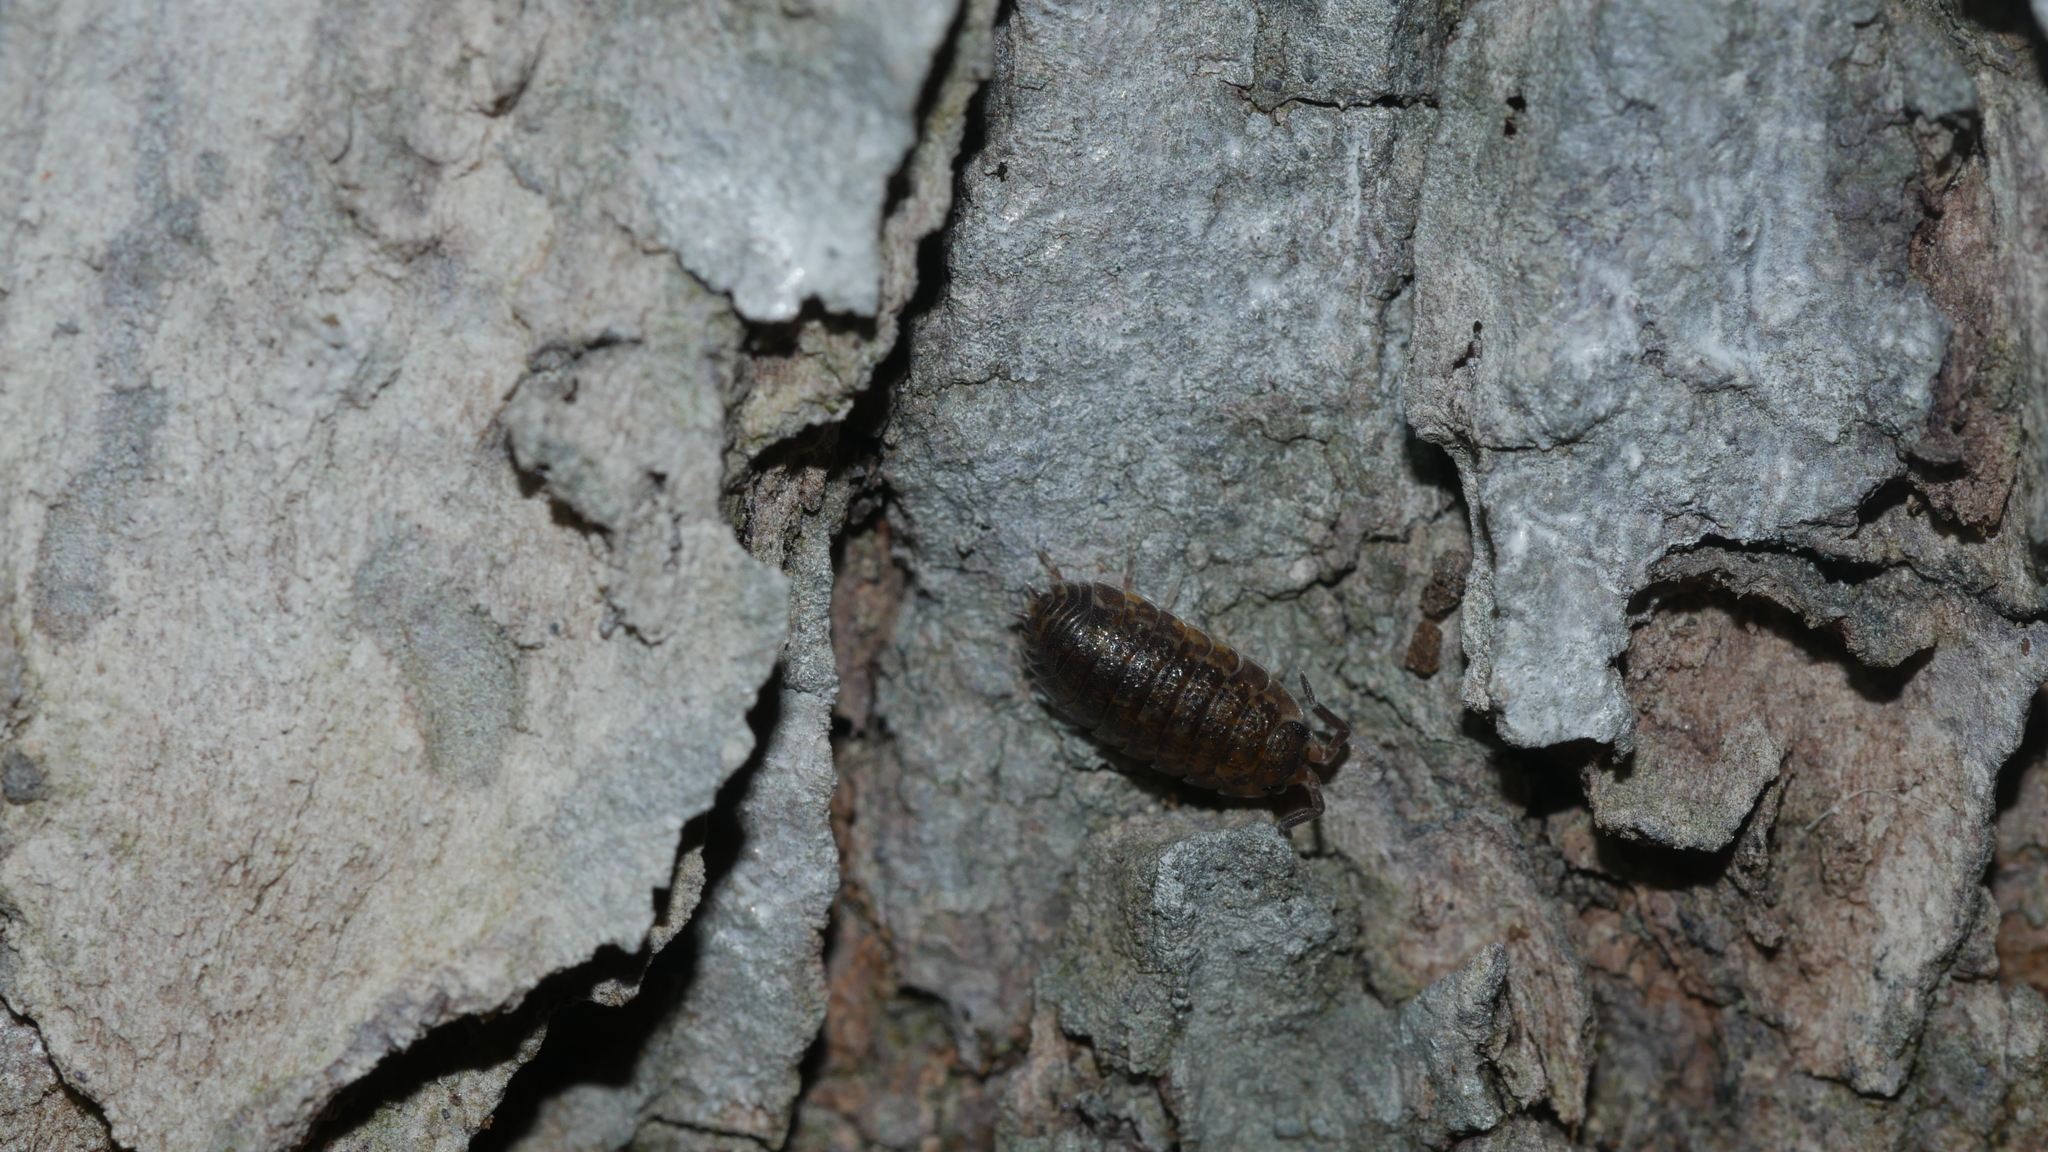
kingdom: Animalia
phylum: Arthropoda
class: Malacostraca
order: Isopoda
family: Porcellionidae
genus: Porcellio
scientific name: Porcellio scaber
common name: Common rough woodlouse
